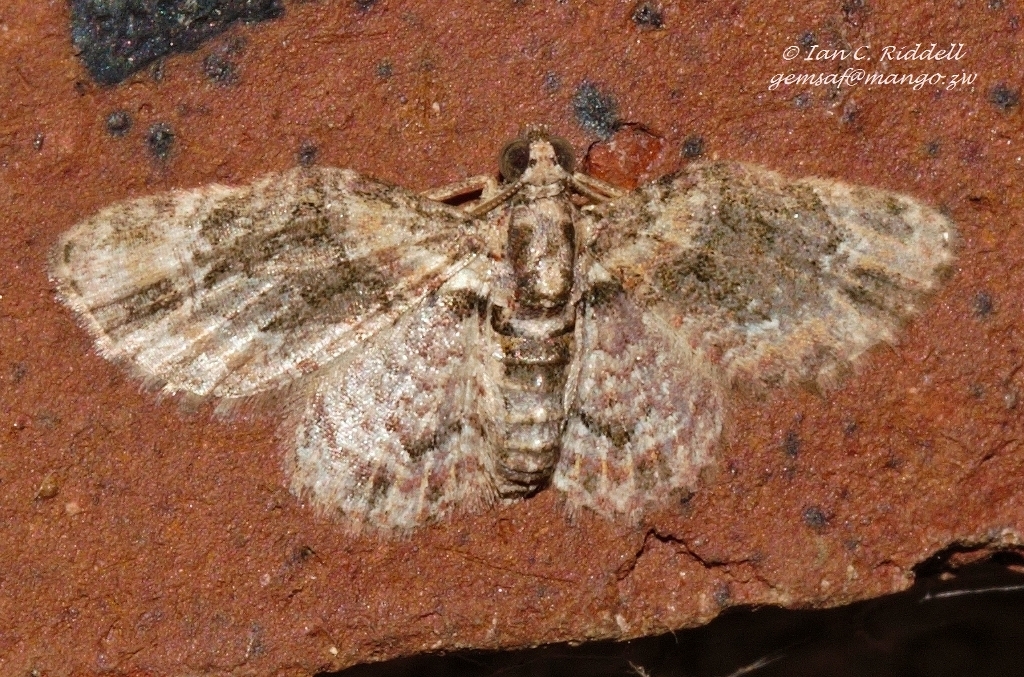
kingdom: Animalia
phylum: Arthropoda
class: Insecta
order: Lepidoptera
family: Geometridae
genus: Mesocolpia
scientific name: Mesocolpia lita
